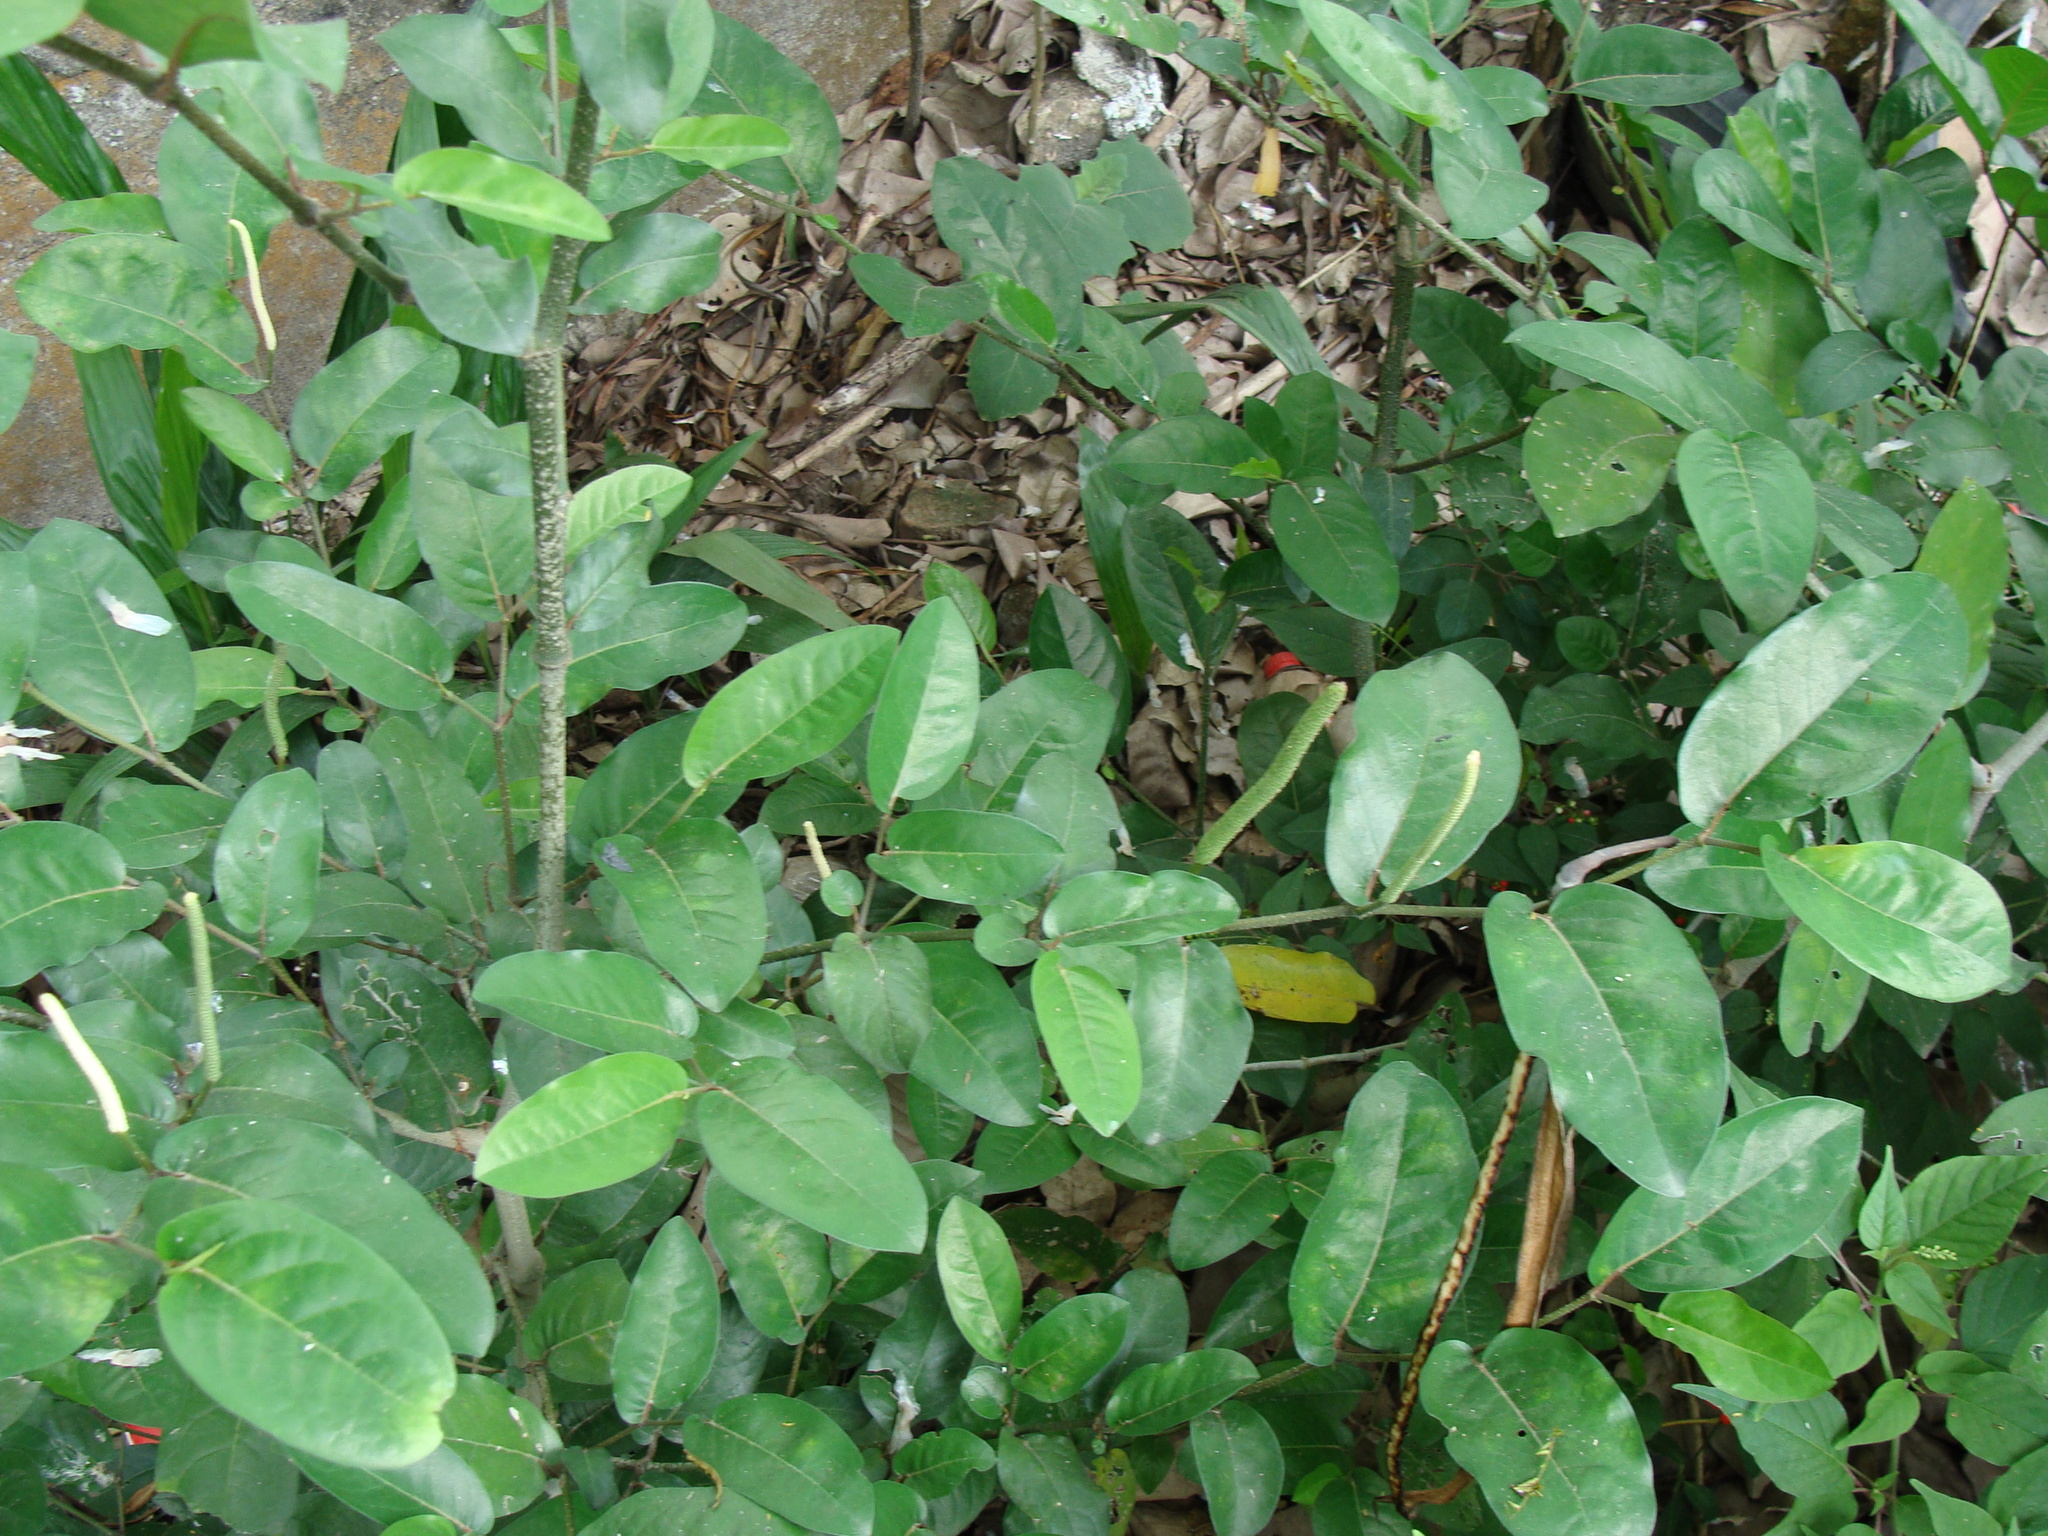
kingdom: Plantae
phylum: Tracheophyta
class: Magnoliopsida
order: Piperales
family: Piperaceae
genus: Piper
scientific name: Piper tuberculatum
